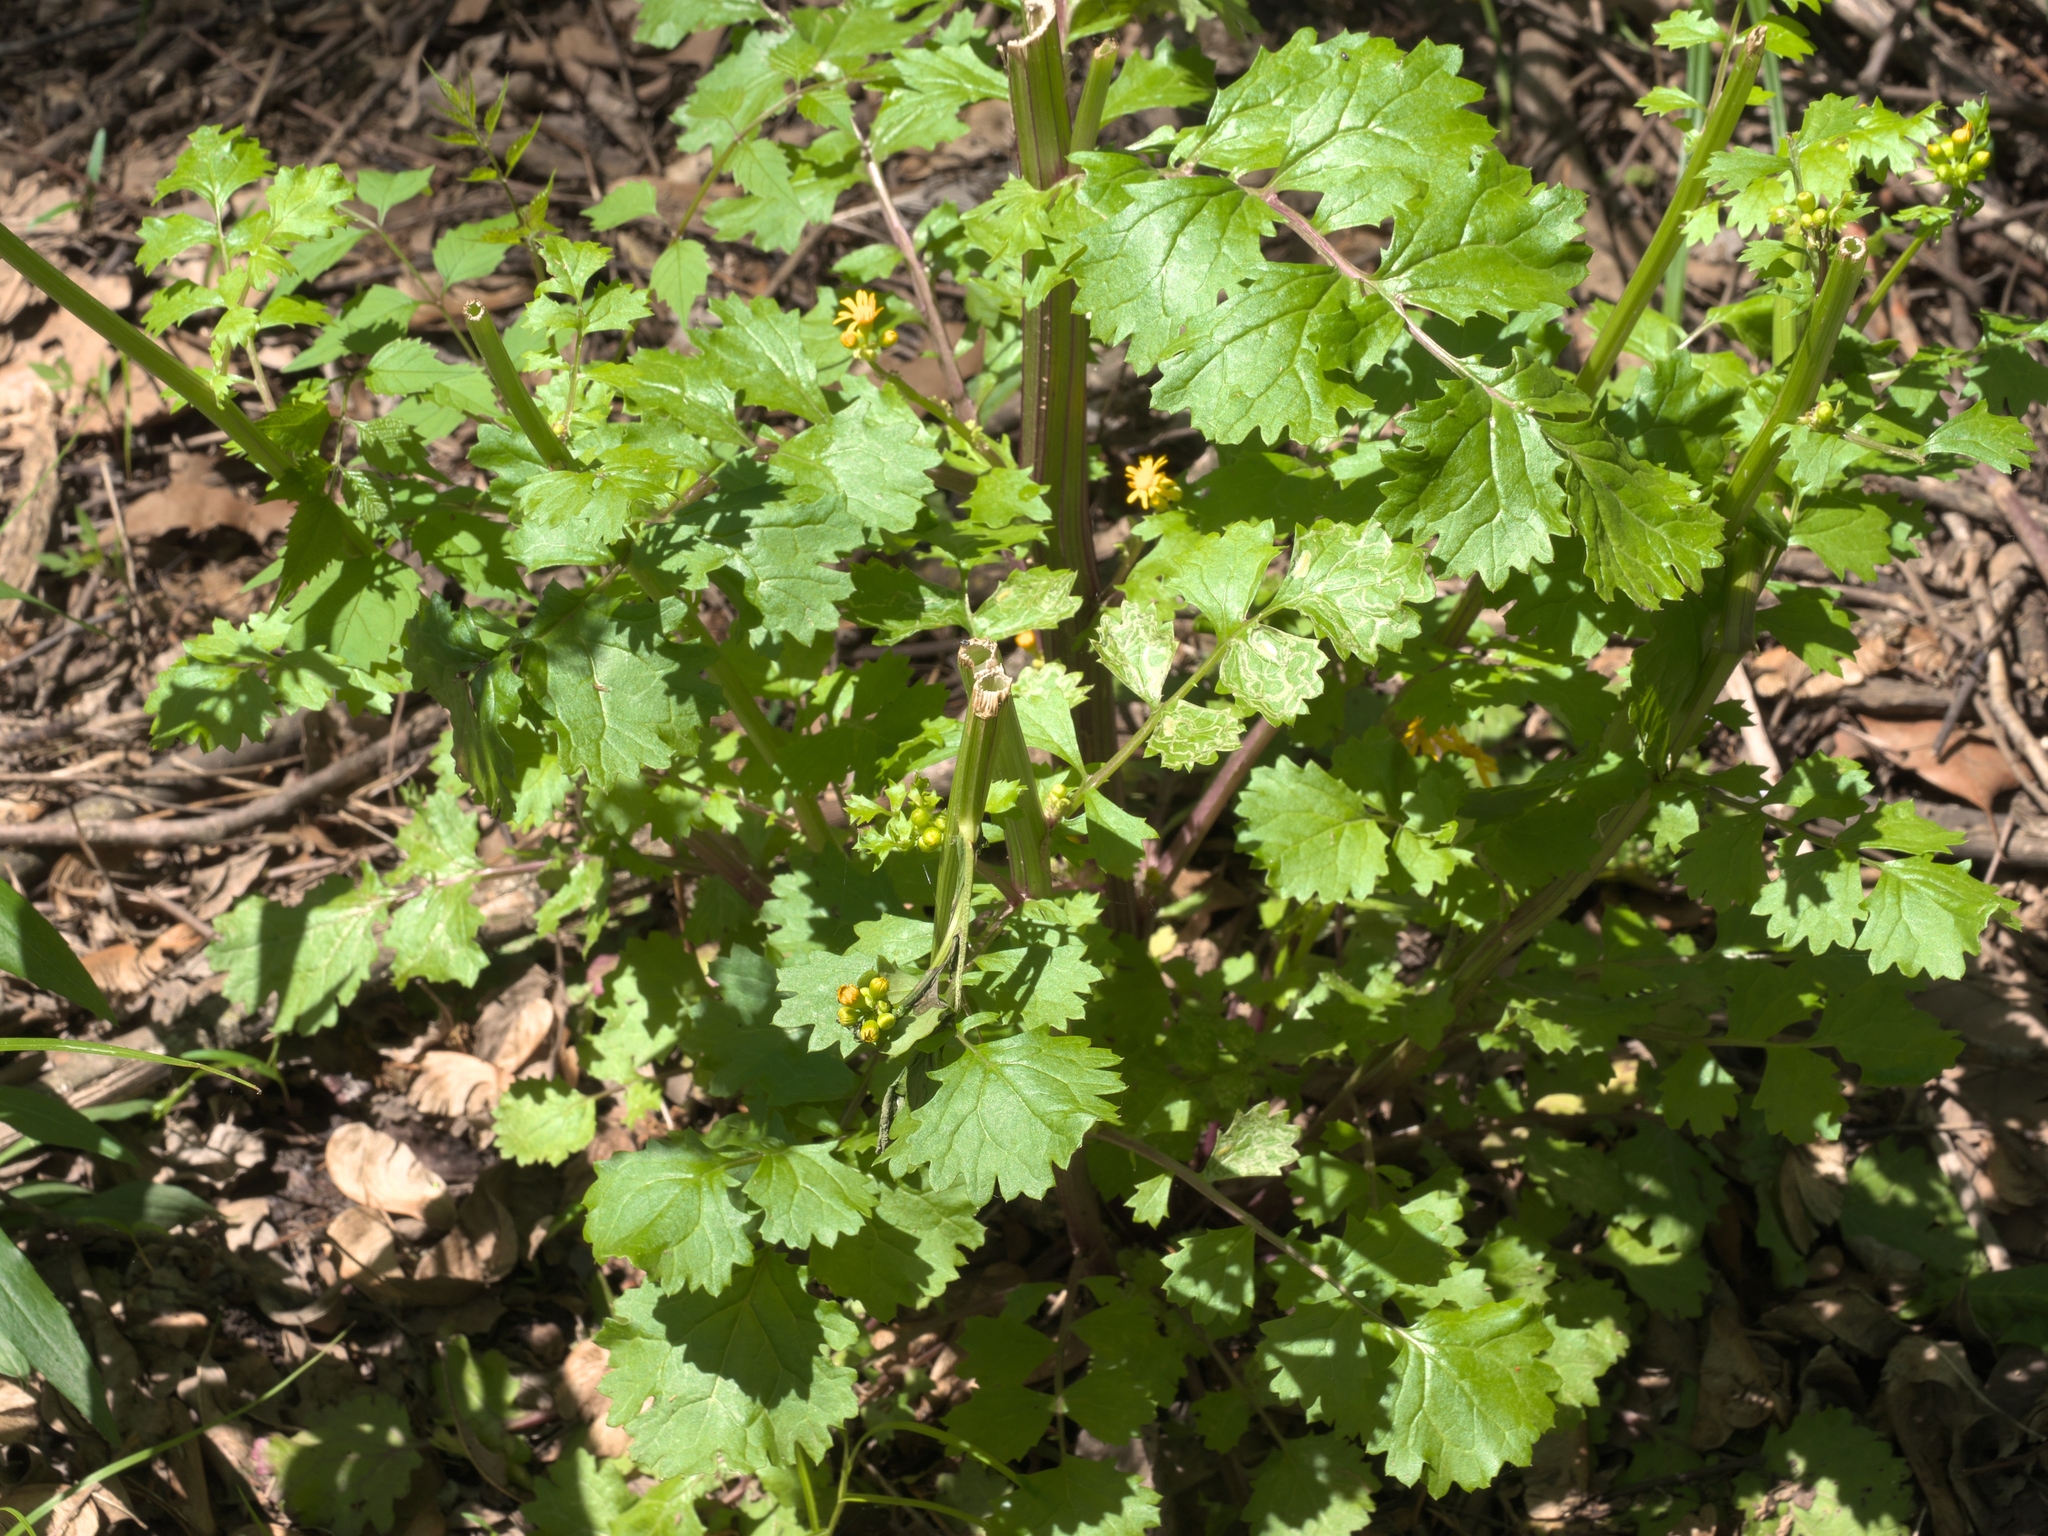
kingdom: Plantae
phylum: Tracheophyta
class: Magnoliopsida
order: Asterales
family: Asteraceae
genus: Packera
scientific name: Packera glabella
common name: Butterweed
